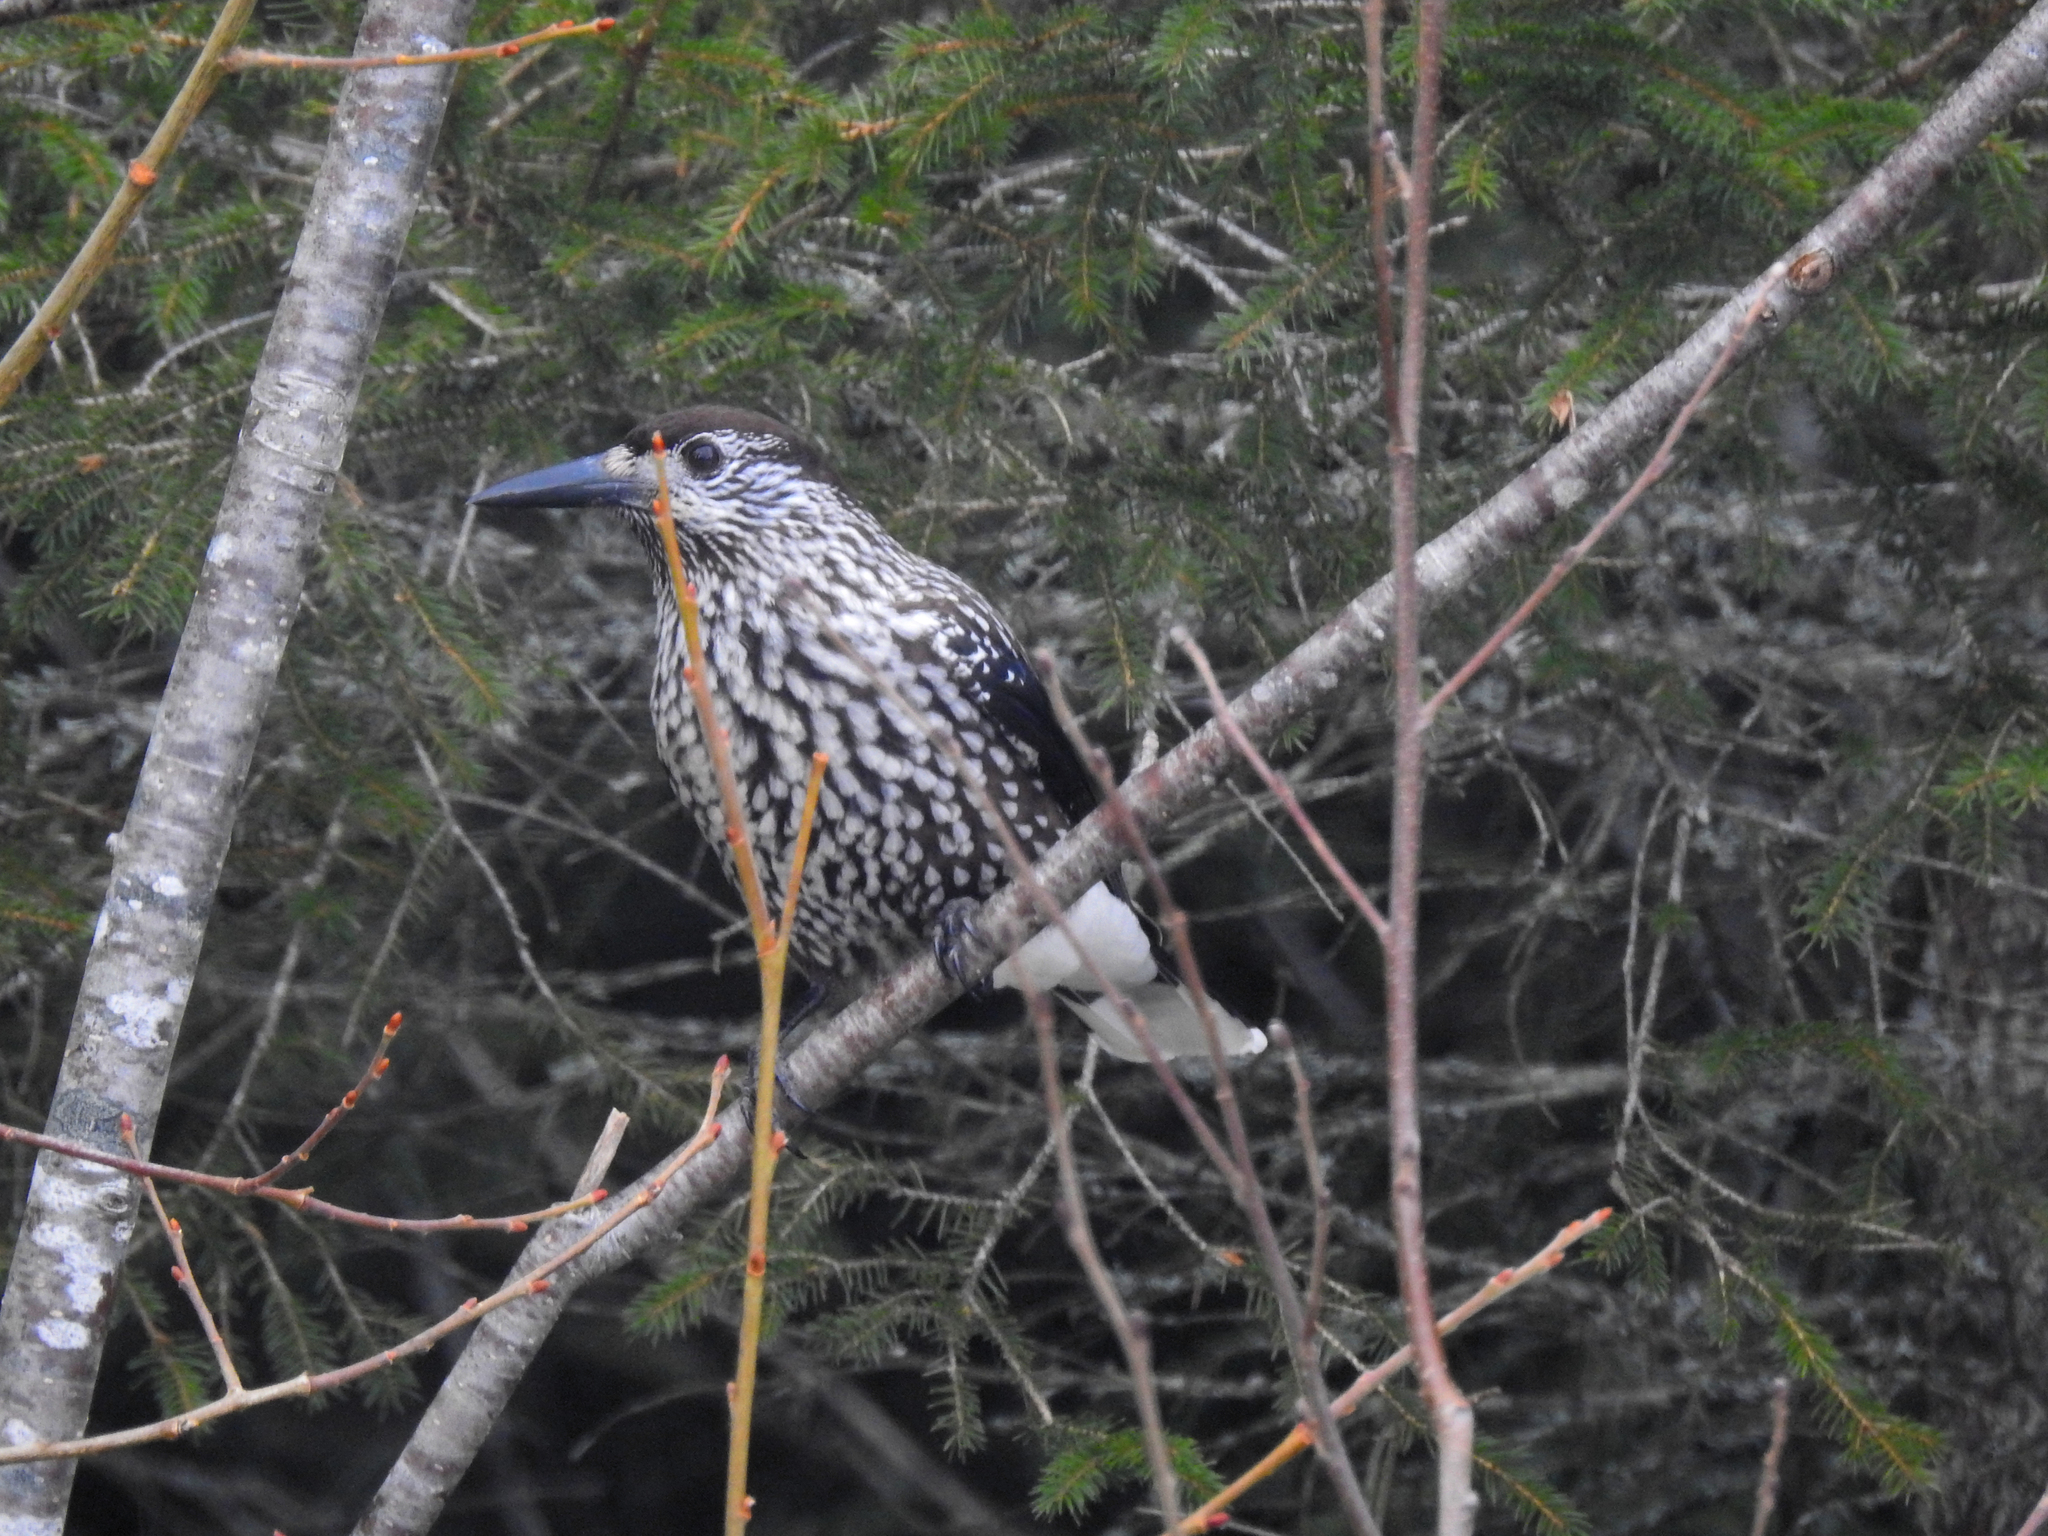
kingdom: Animalia
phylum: Chordata
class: Aves
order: Passeriformes
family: Corvidae
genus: Nucifraga
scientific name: Nucifraga caryocatactes
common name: Spotted nutcracker
